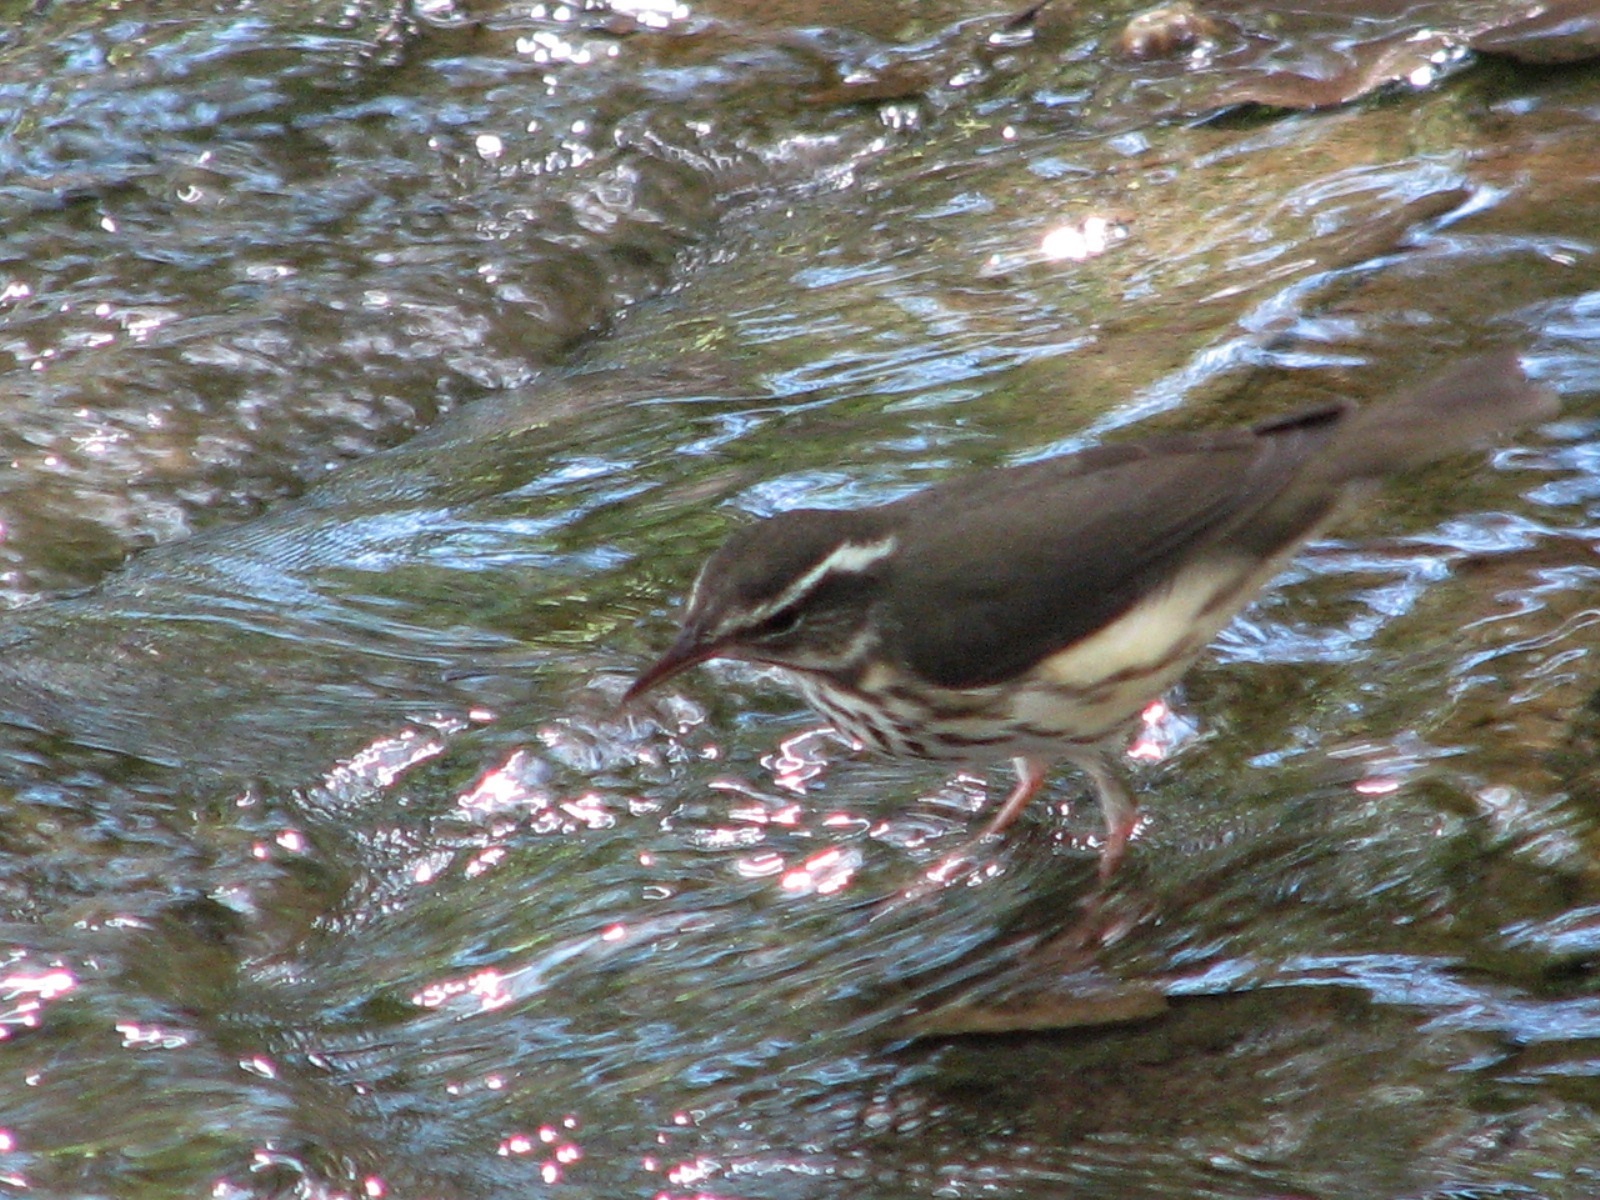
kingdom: Animalia
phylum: Chordata
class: Aves
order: Passeriformes
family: Parulidae
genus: Parkesia
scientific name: Parkesia motacilla
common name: Louisiana waterthrush
